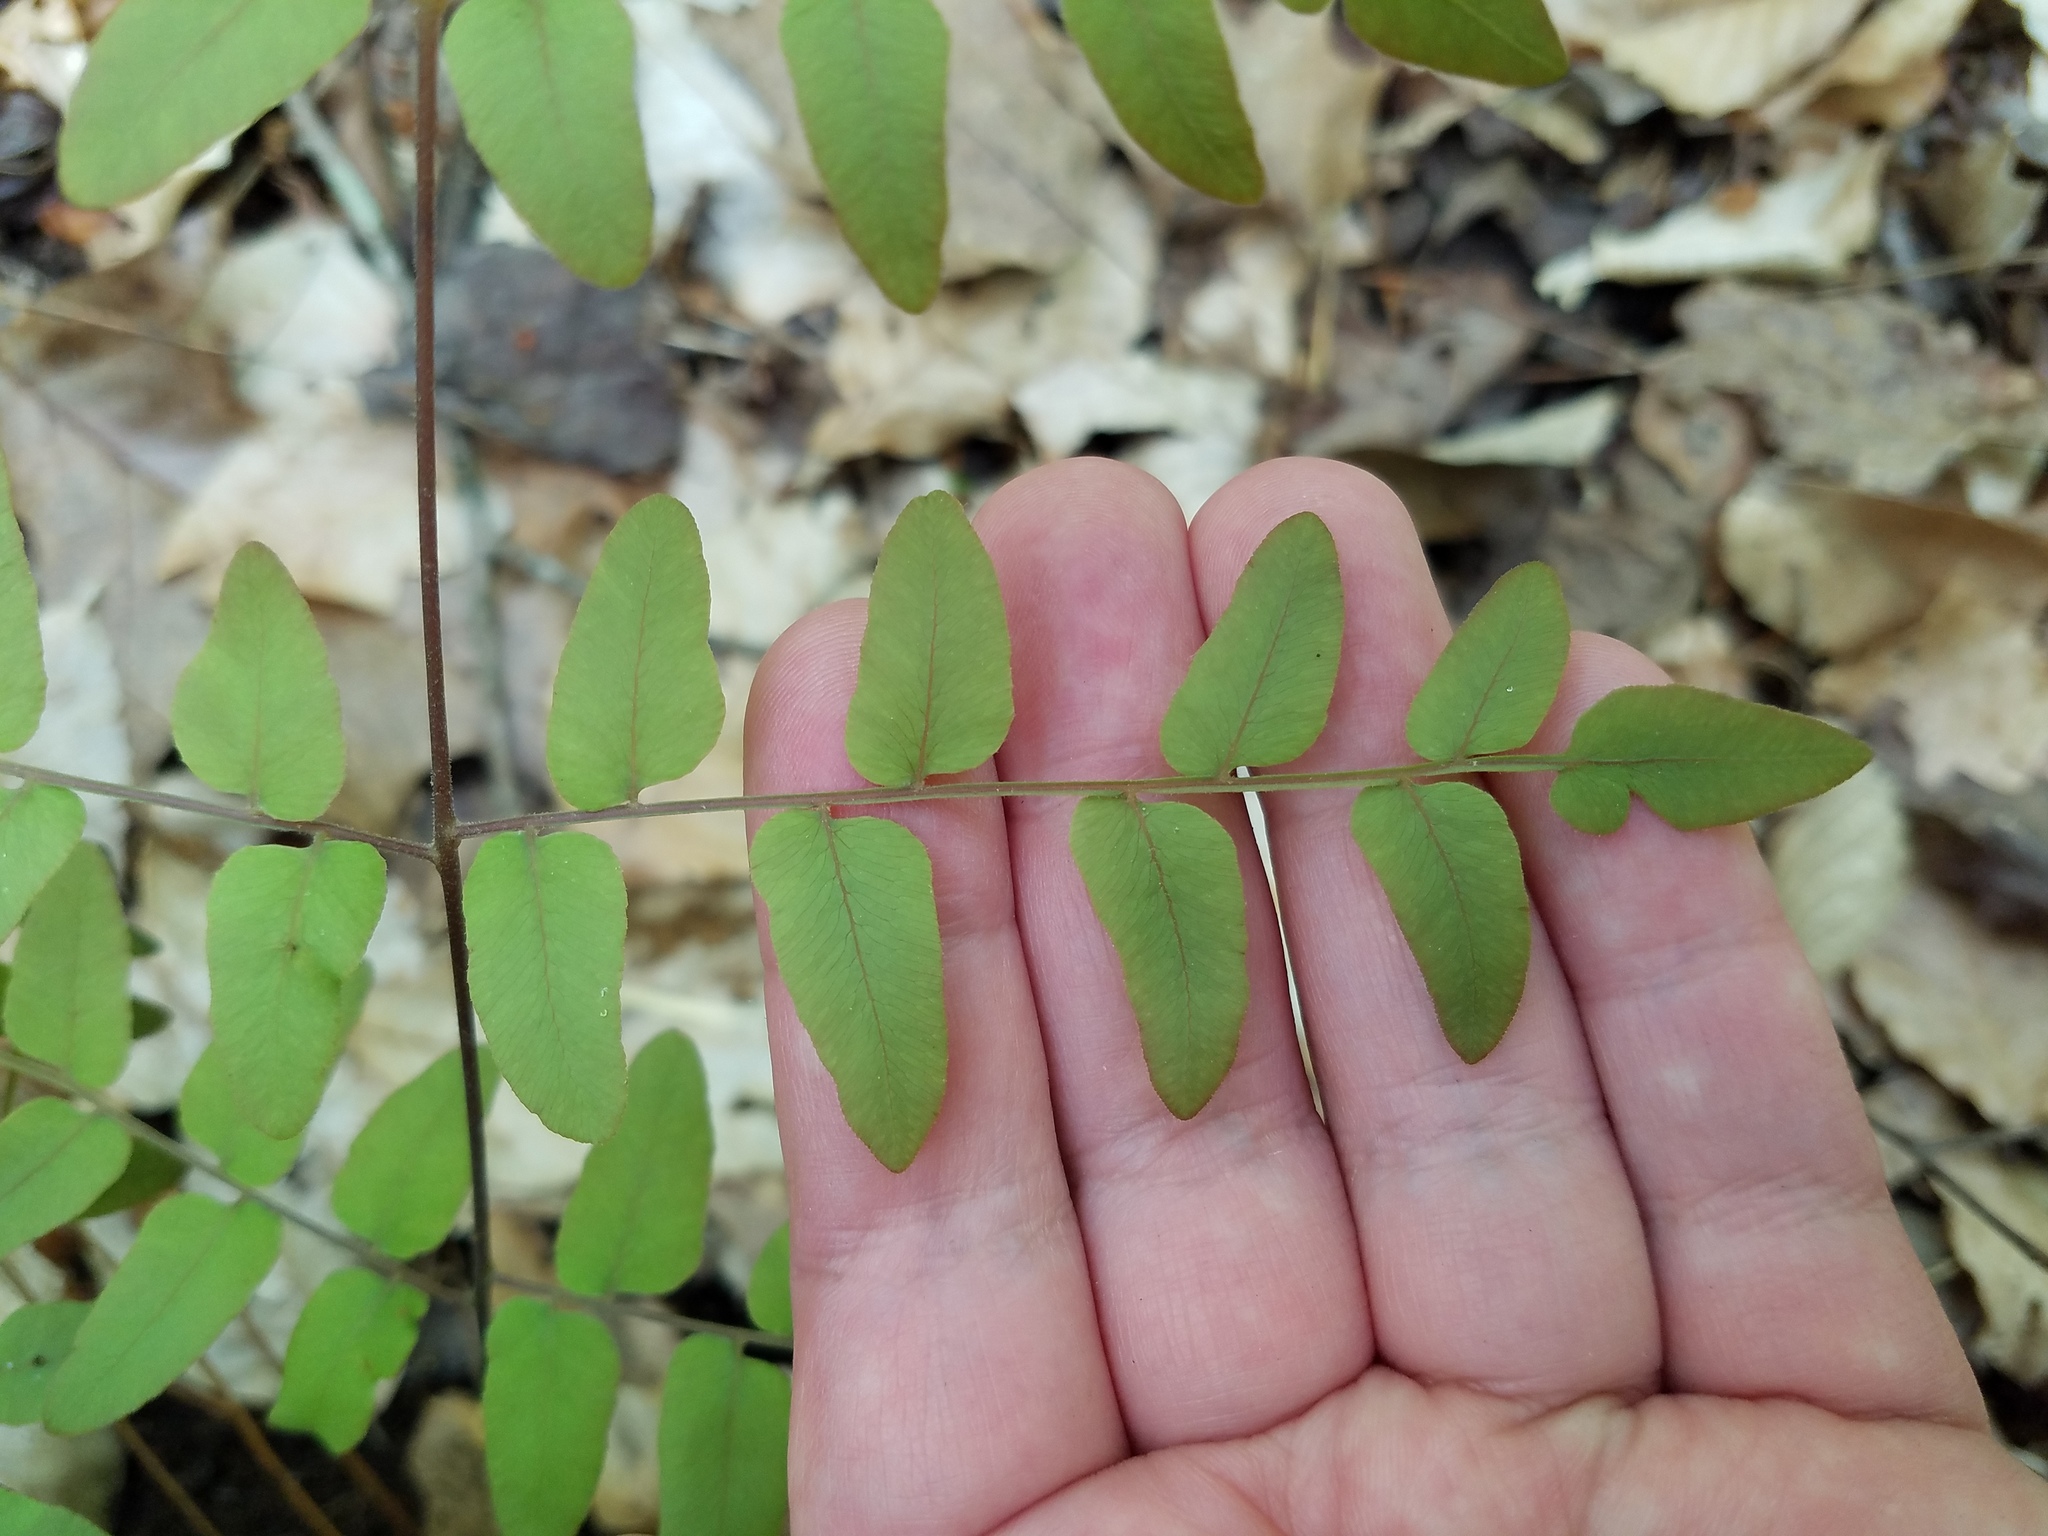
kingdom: Plantae
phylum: Tracheophyta
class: Polypodiopsida
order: Osmundales
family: Osmundaceae
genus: Osmunda
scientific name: Osmunda spectabilis
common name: American royal fern
